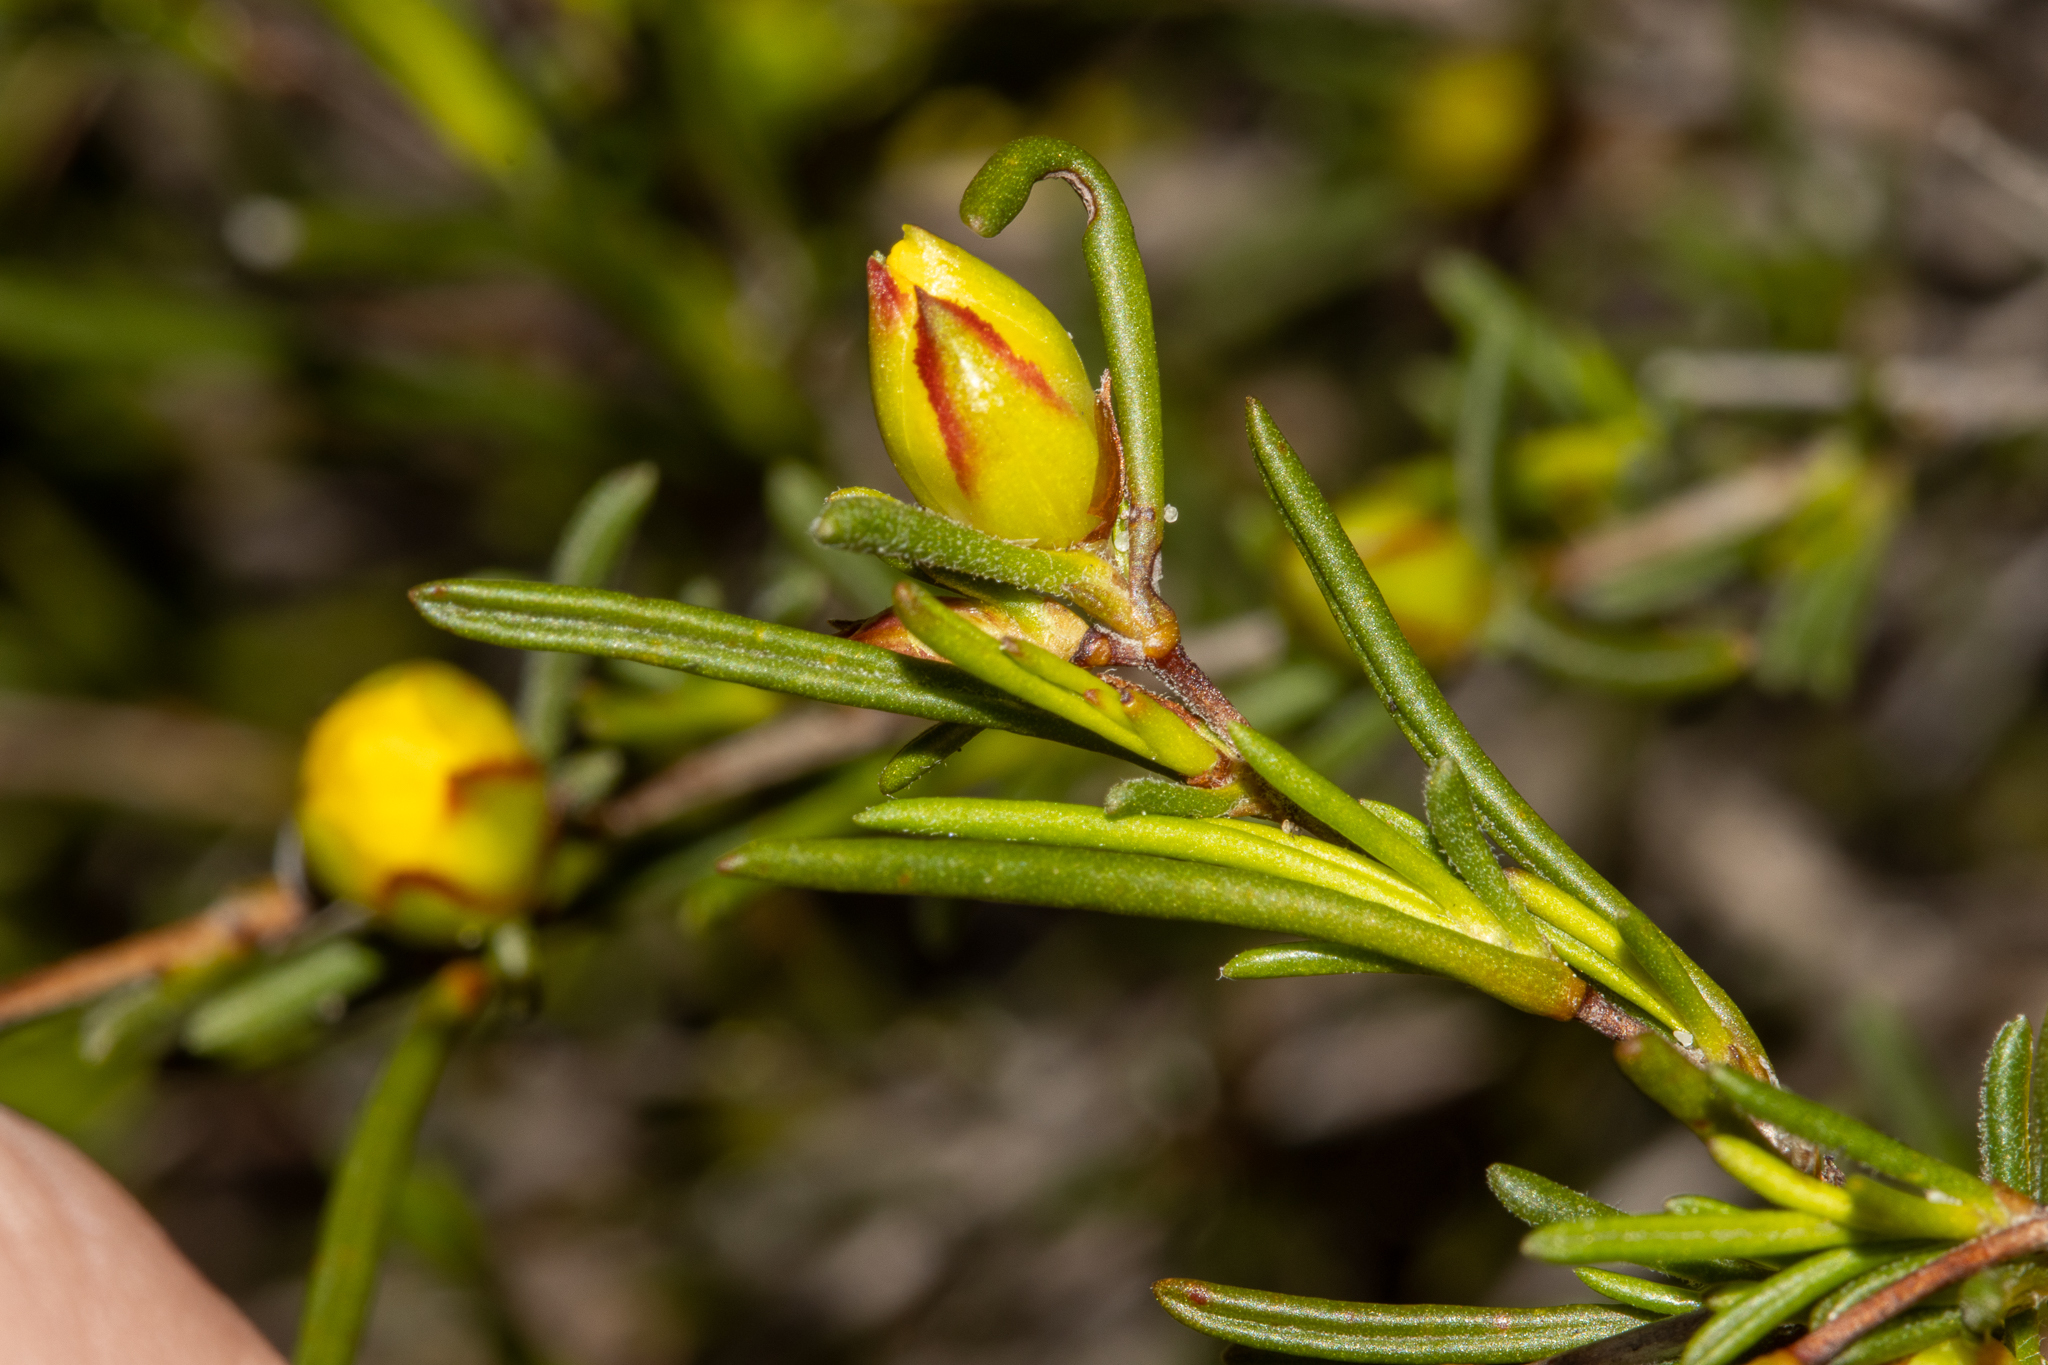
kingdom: Plantae
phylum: Tracheophyta
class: Magnoliopsida
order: Dilleniales
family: Dilleniaceae
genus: Hibbertia
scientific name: Hibbertia virgata
